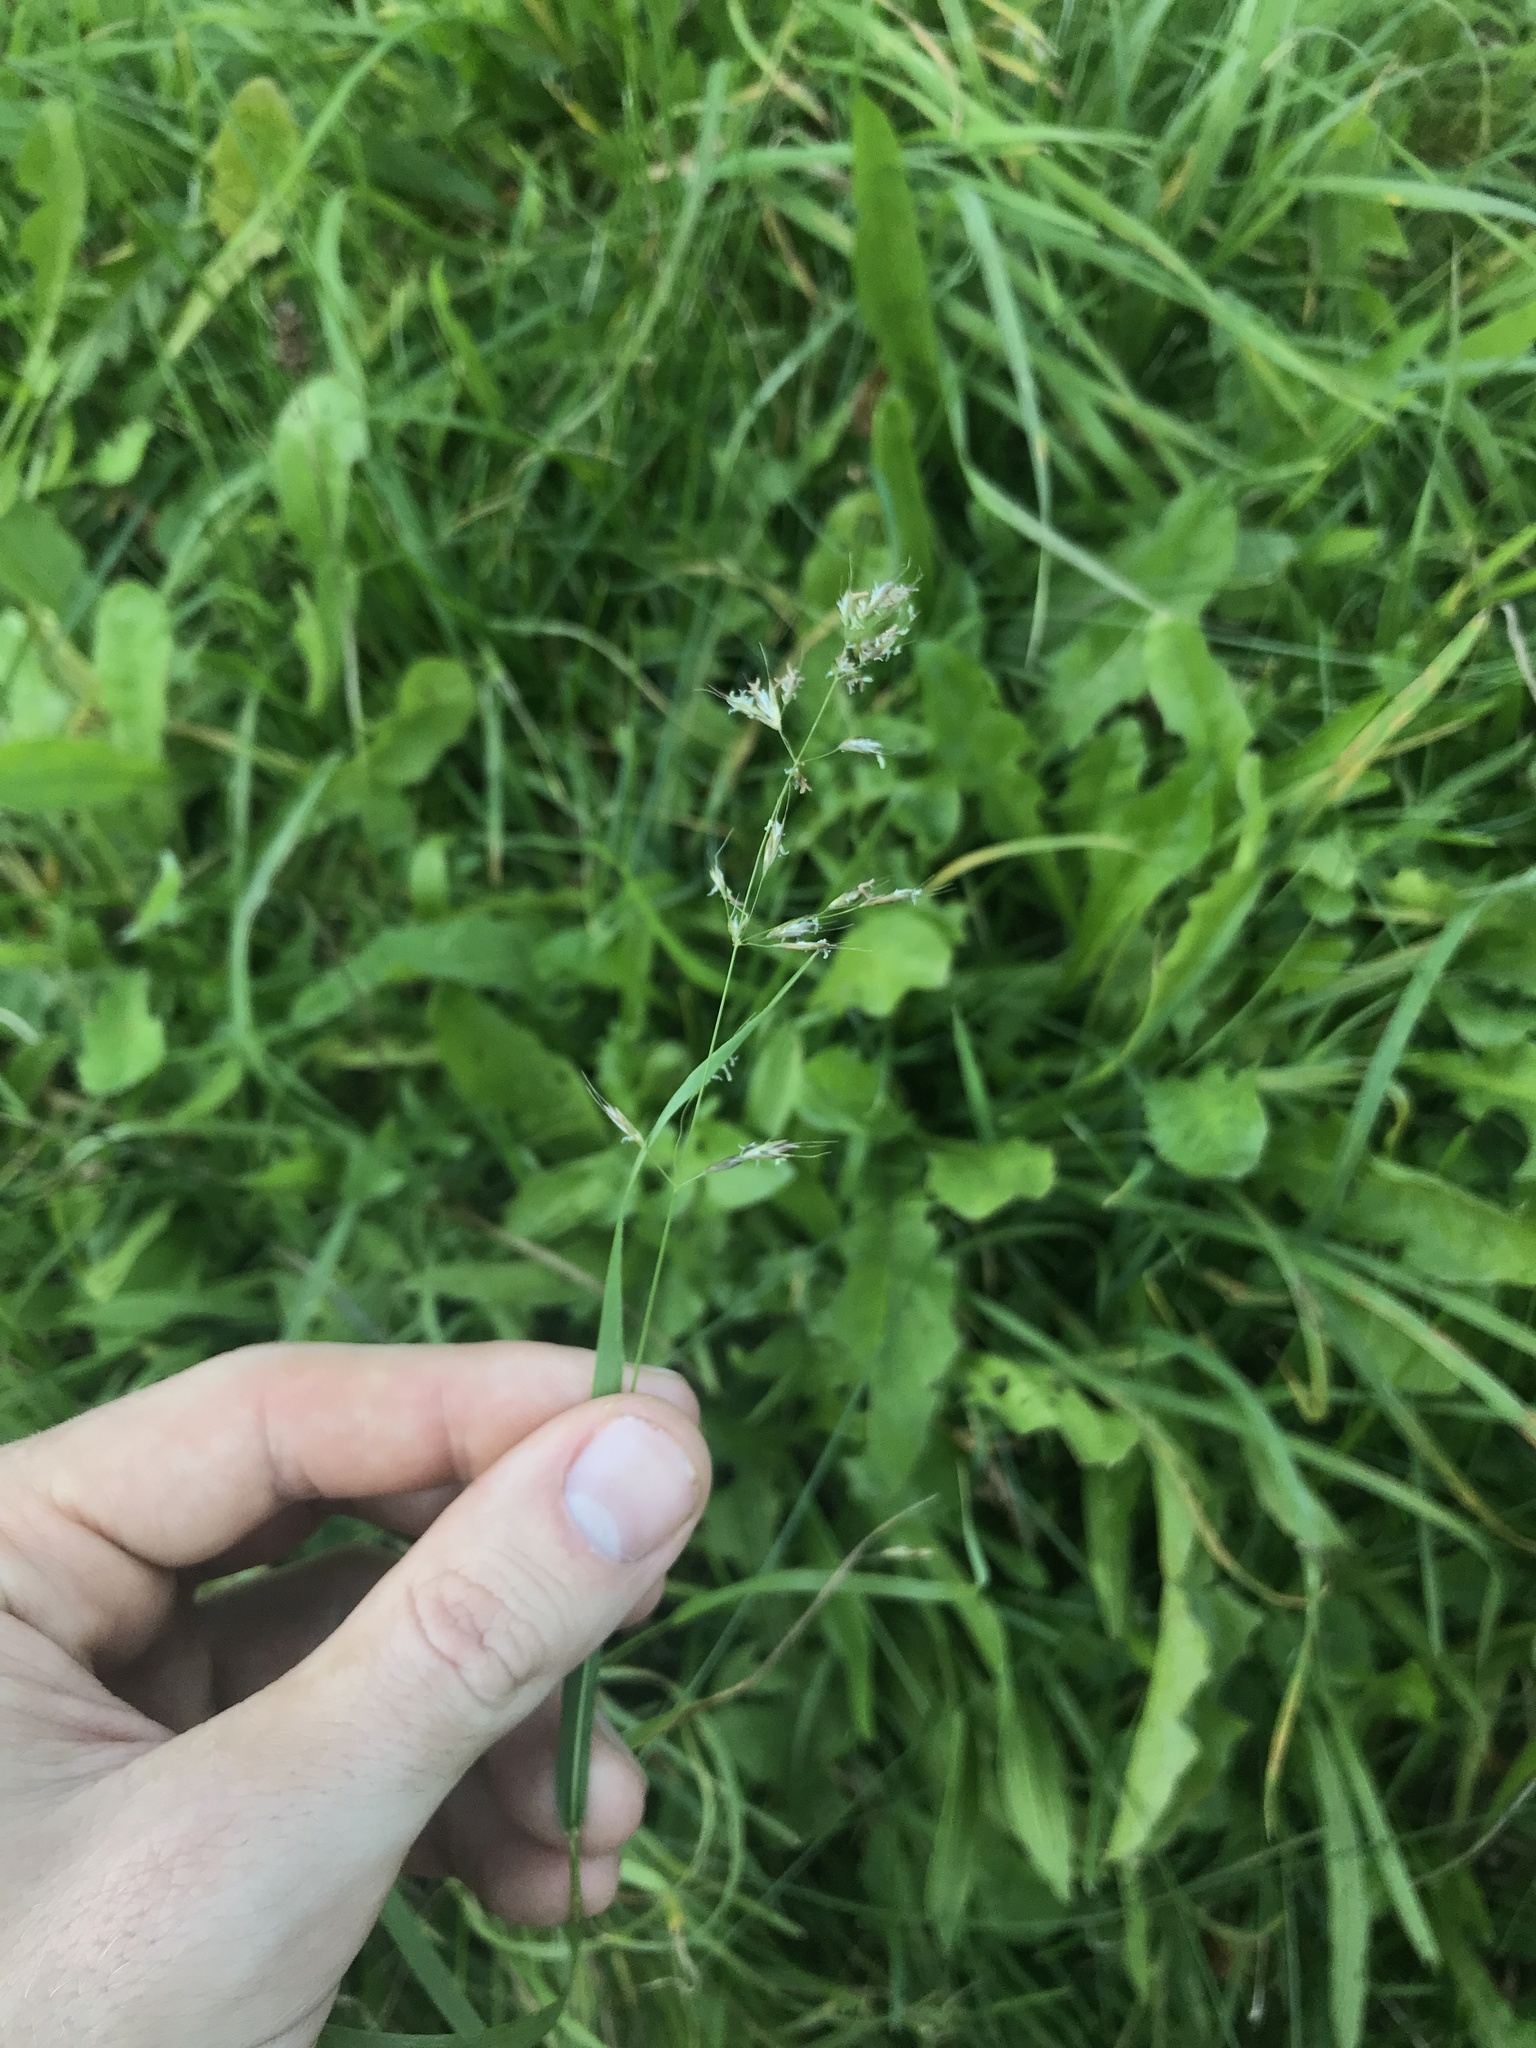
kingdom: Plantae
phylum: Tracheophyta
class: Liliopsida
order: Poales
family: Poaceae
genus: Trisetum
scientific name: Trisetum flavescens
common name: Yellow oat-grass
